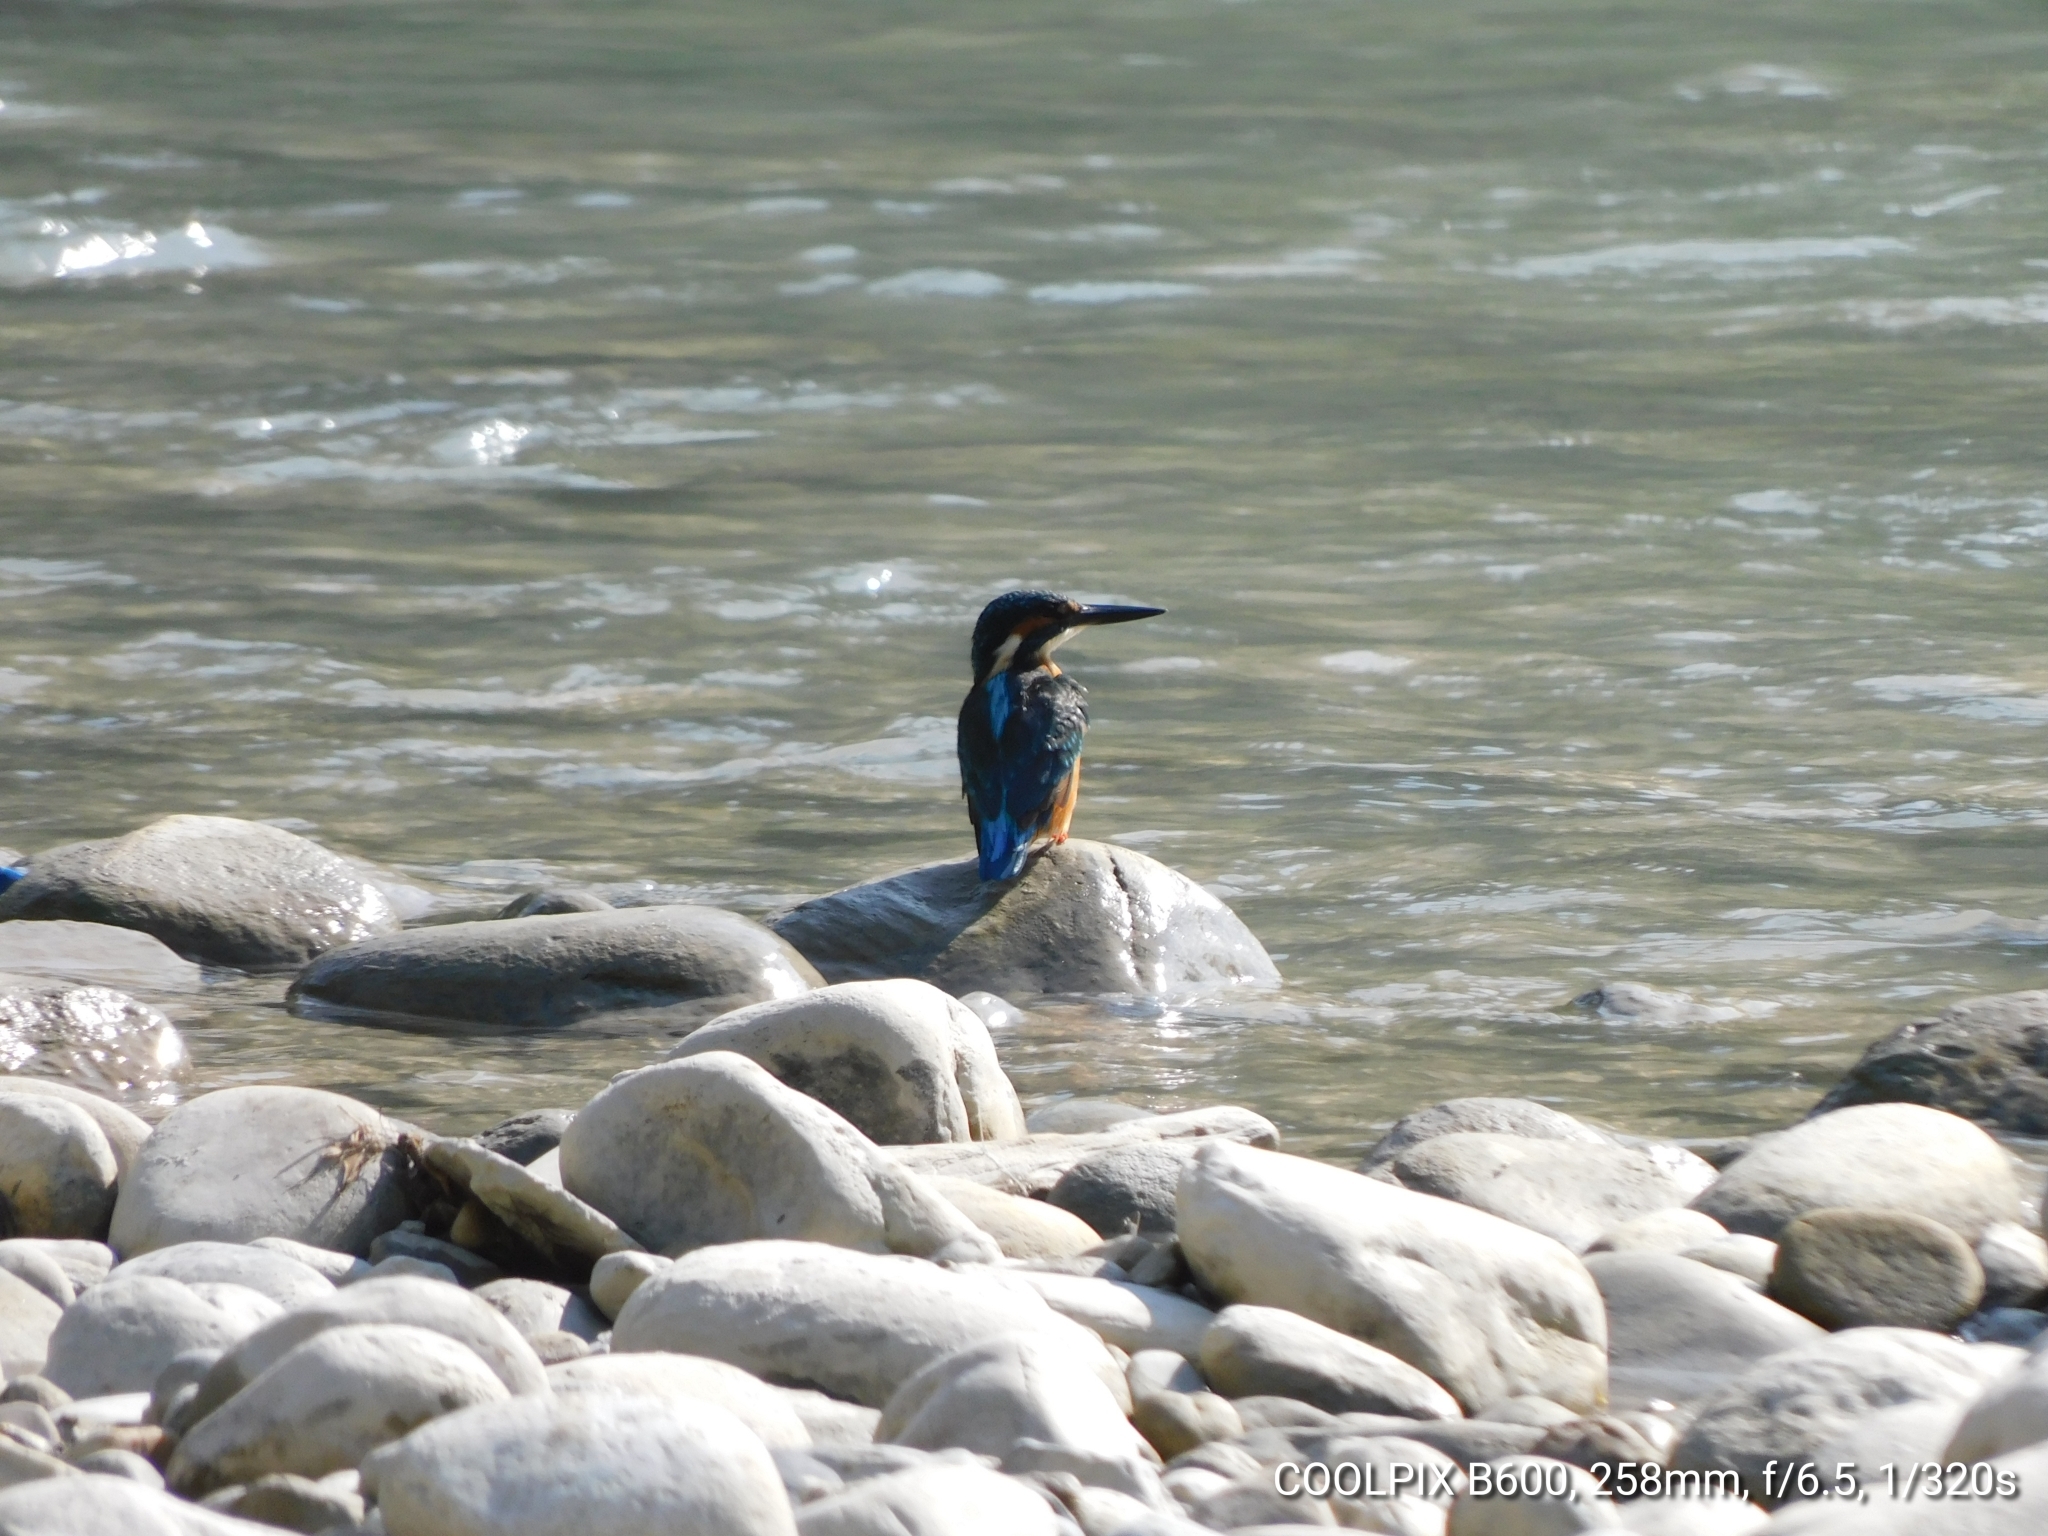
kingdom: Animalia
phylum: Chordata
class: Aves
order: Coraciiformes
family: Alcedinidae
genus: Alcedo
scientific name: Alcedo atthis
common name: Common kingfisher
